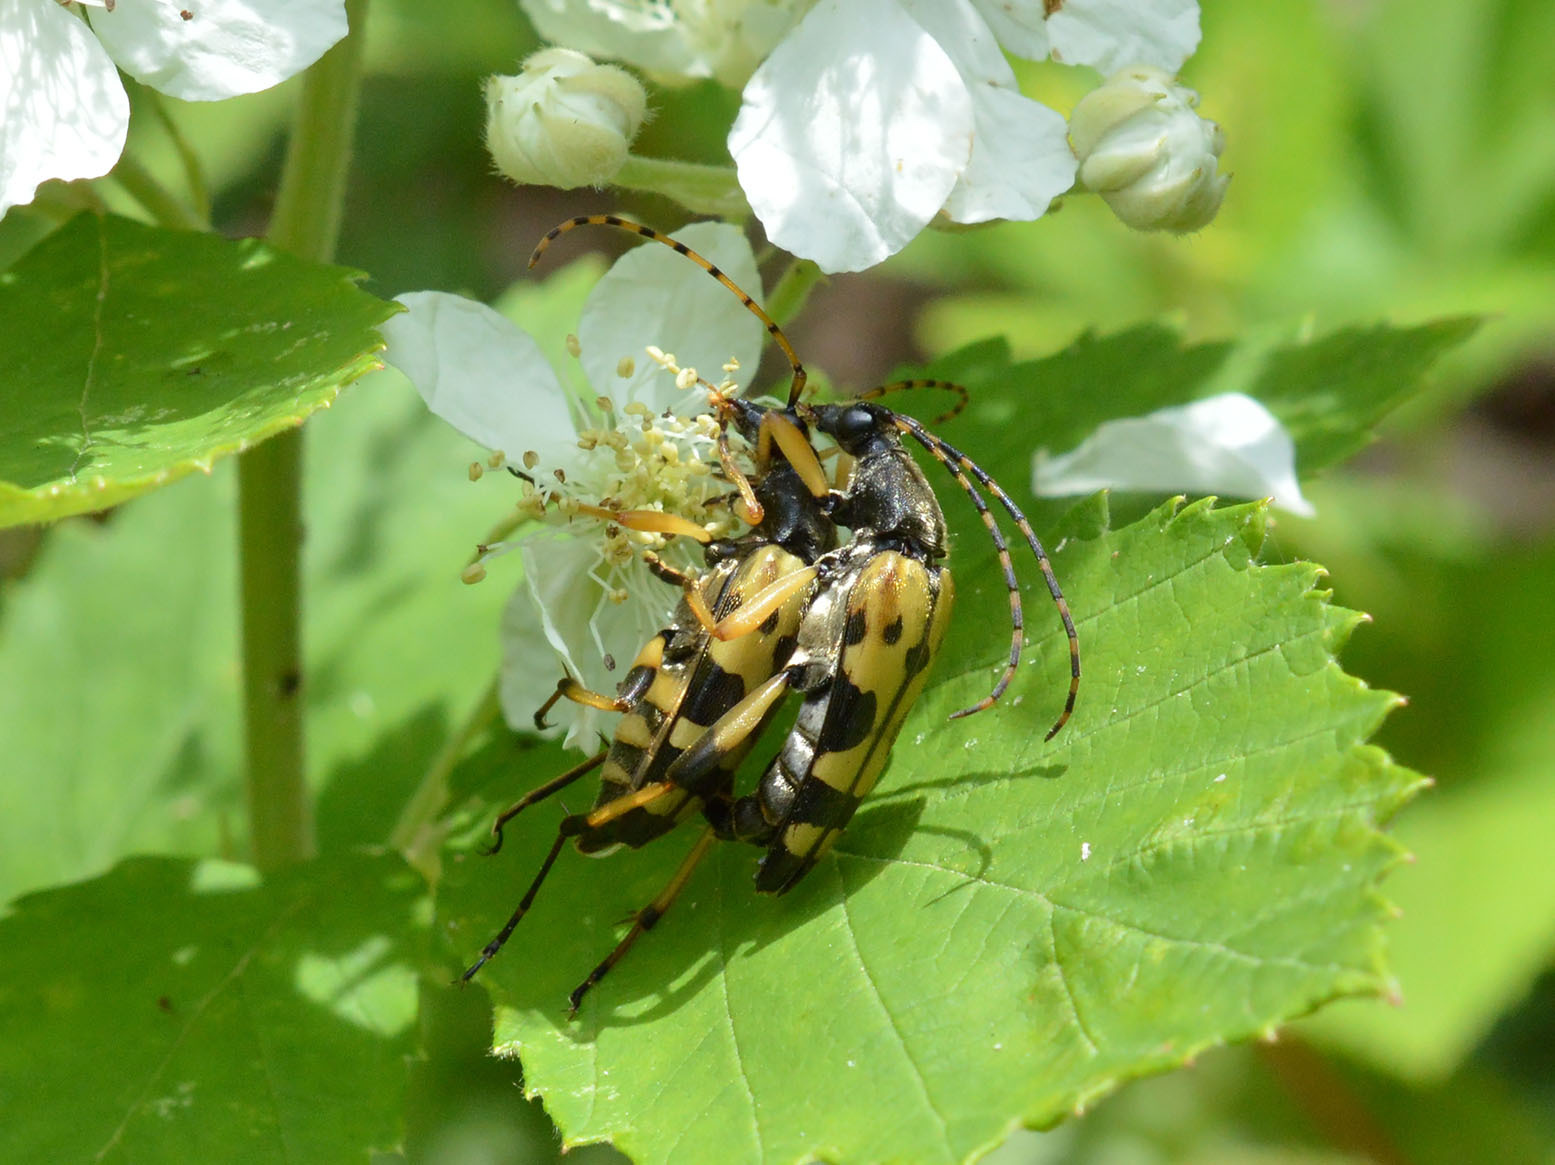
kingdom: Animalia
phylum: Arthropoda
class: Insecta
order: Coleoptera
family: Cerambycidae
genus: Rutpela
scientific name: Rutpela maculata
